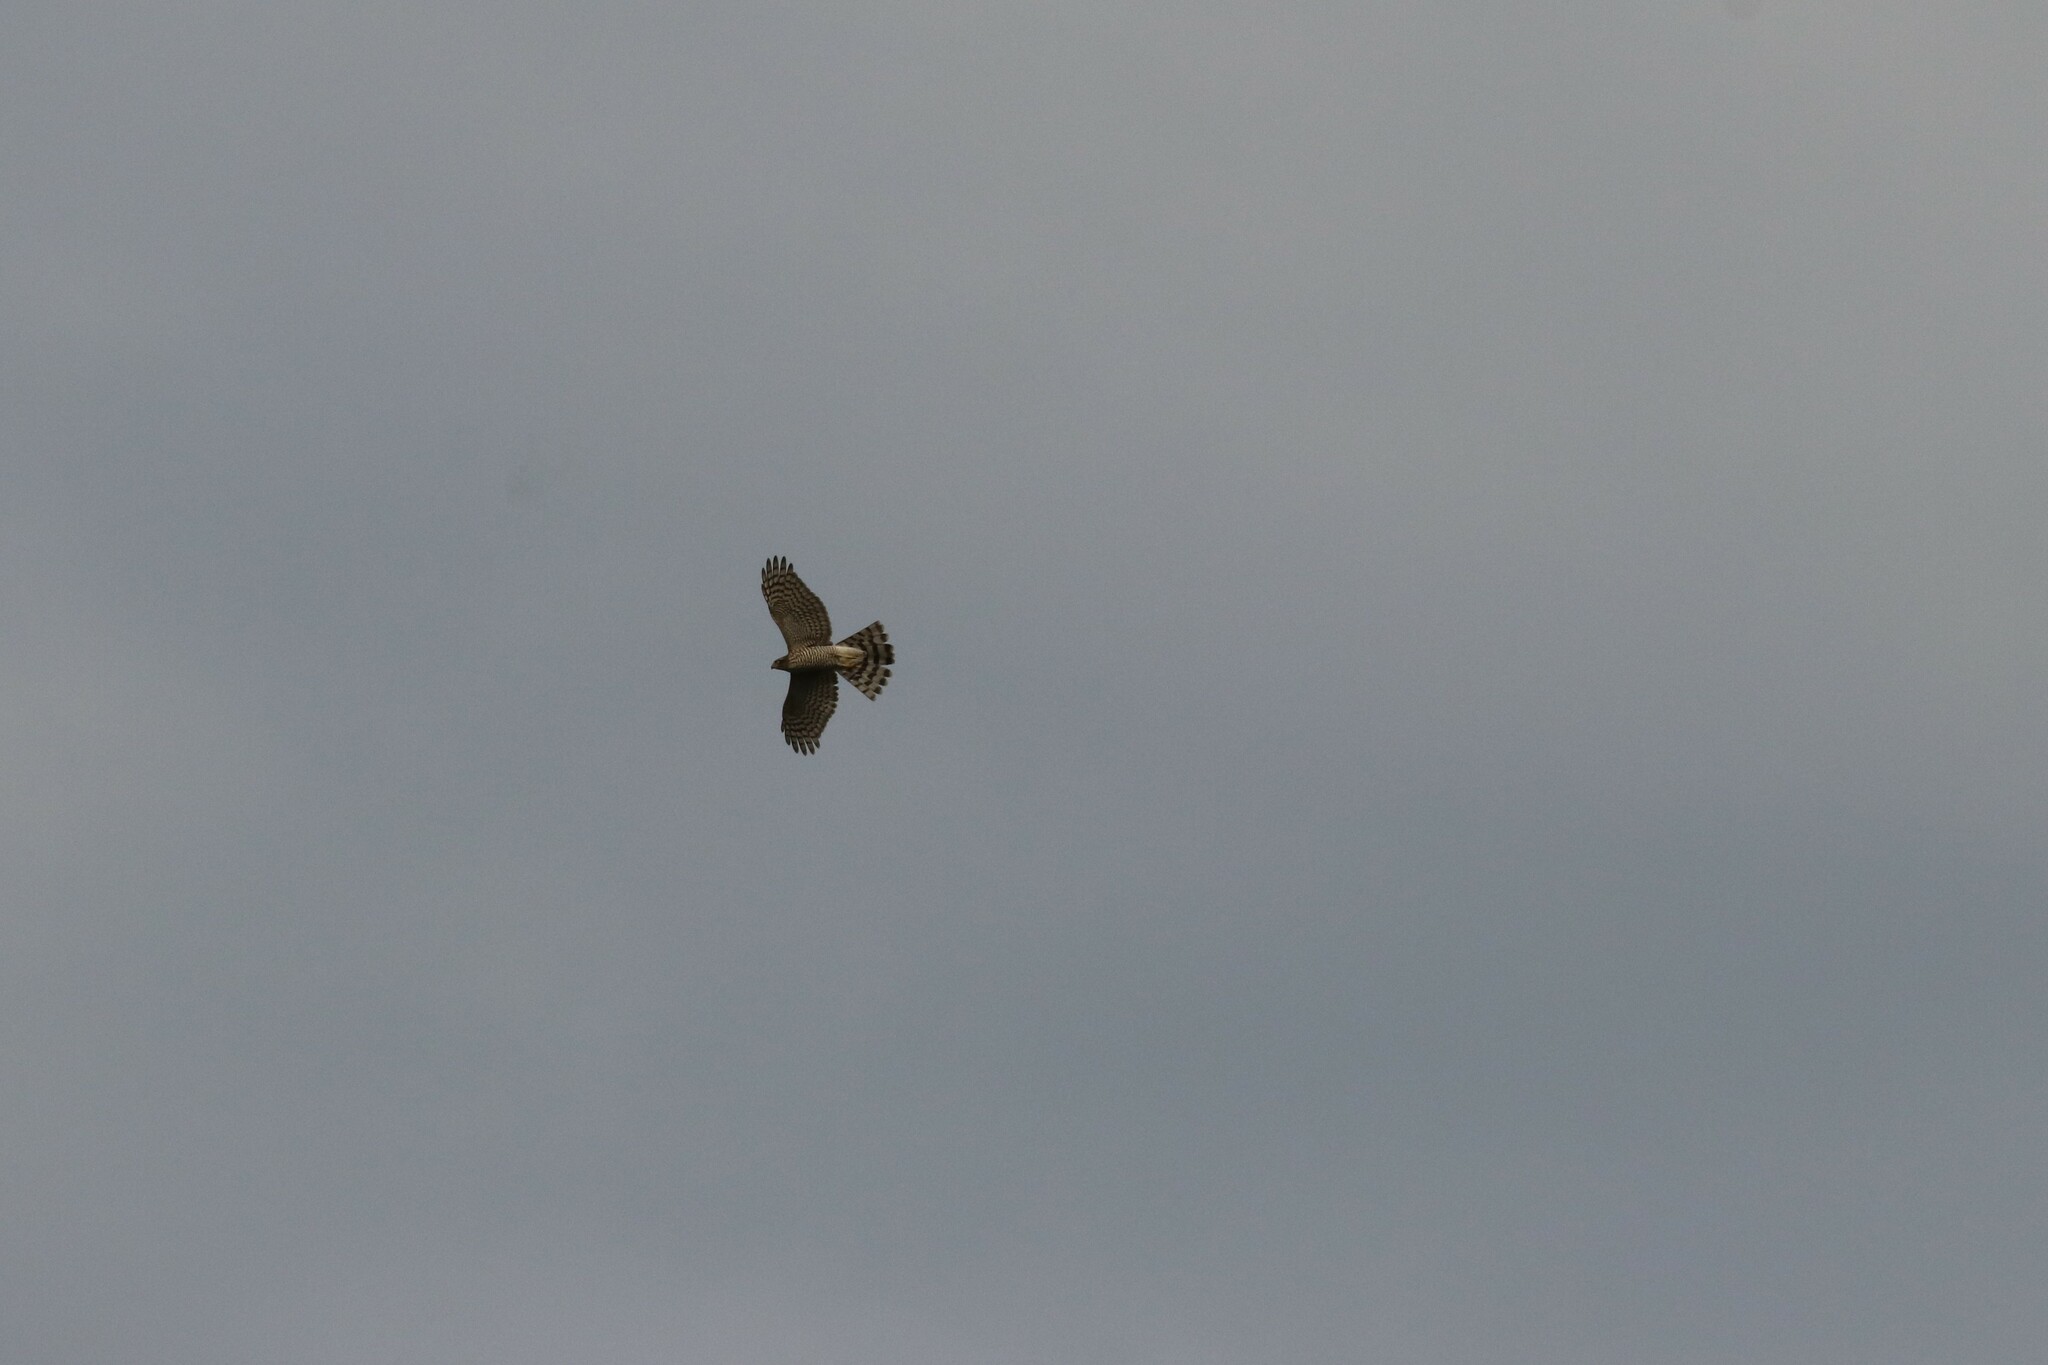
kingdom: Animalia
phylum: Chordata
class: Aves
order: Accipitriformes
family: Accipitridae
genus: Accipiter
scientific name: Accipiter nisus
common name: Eurasian sparrowhawk
